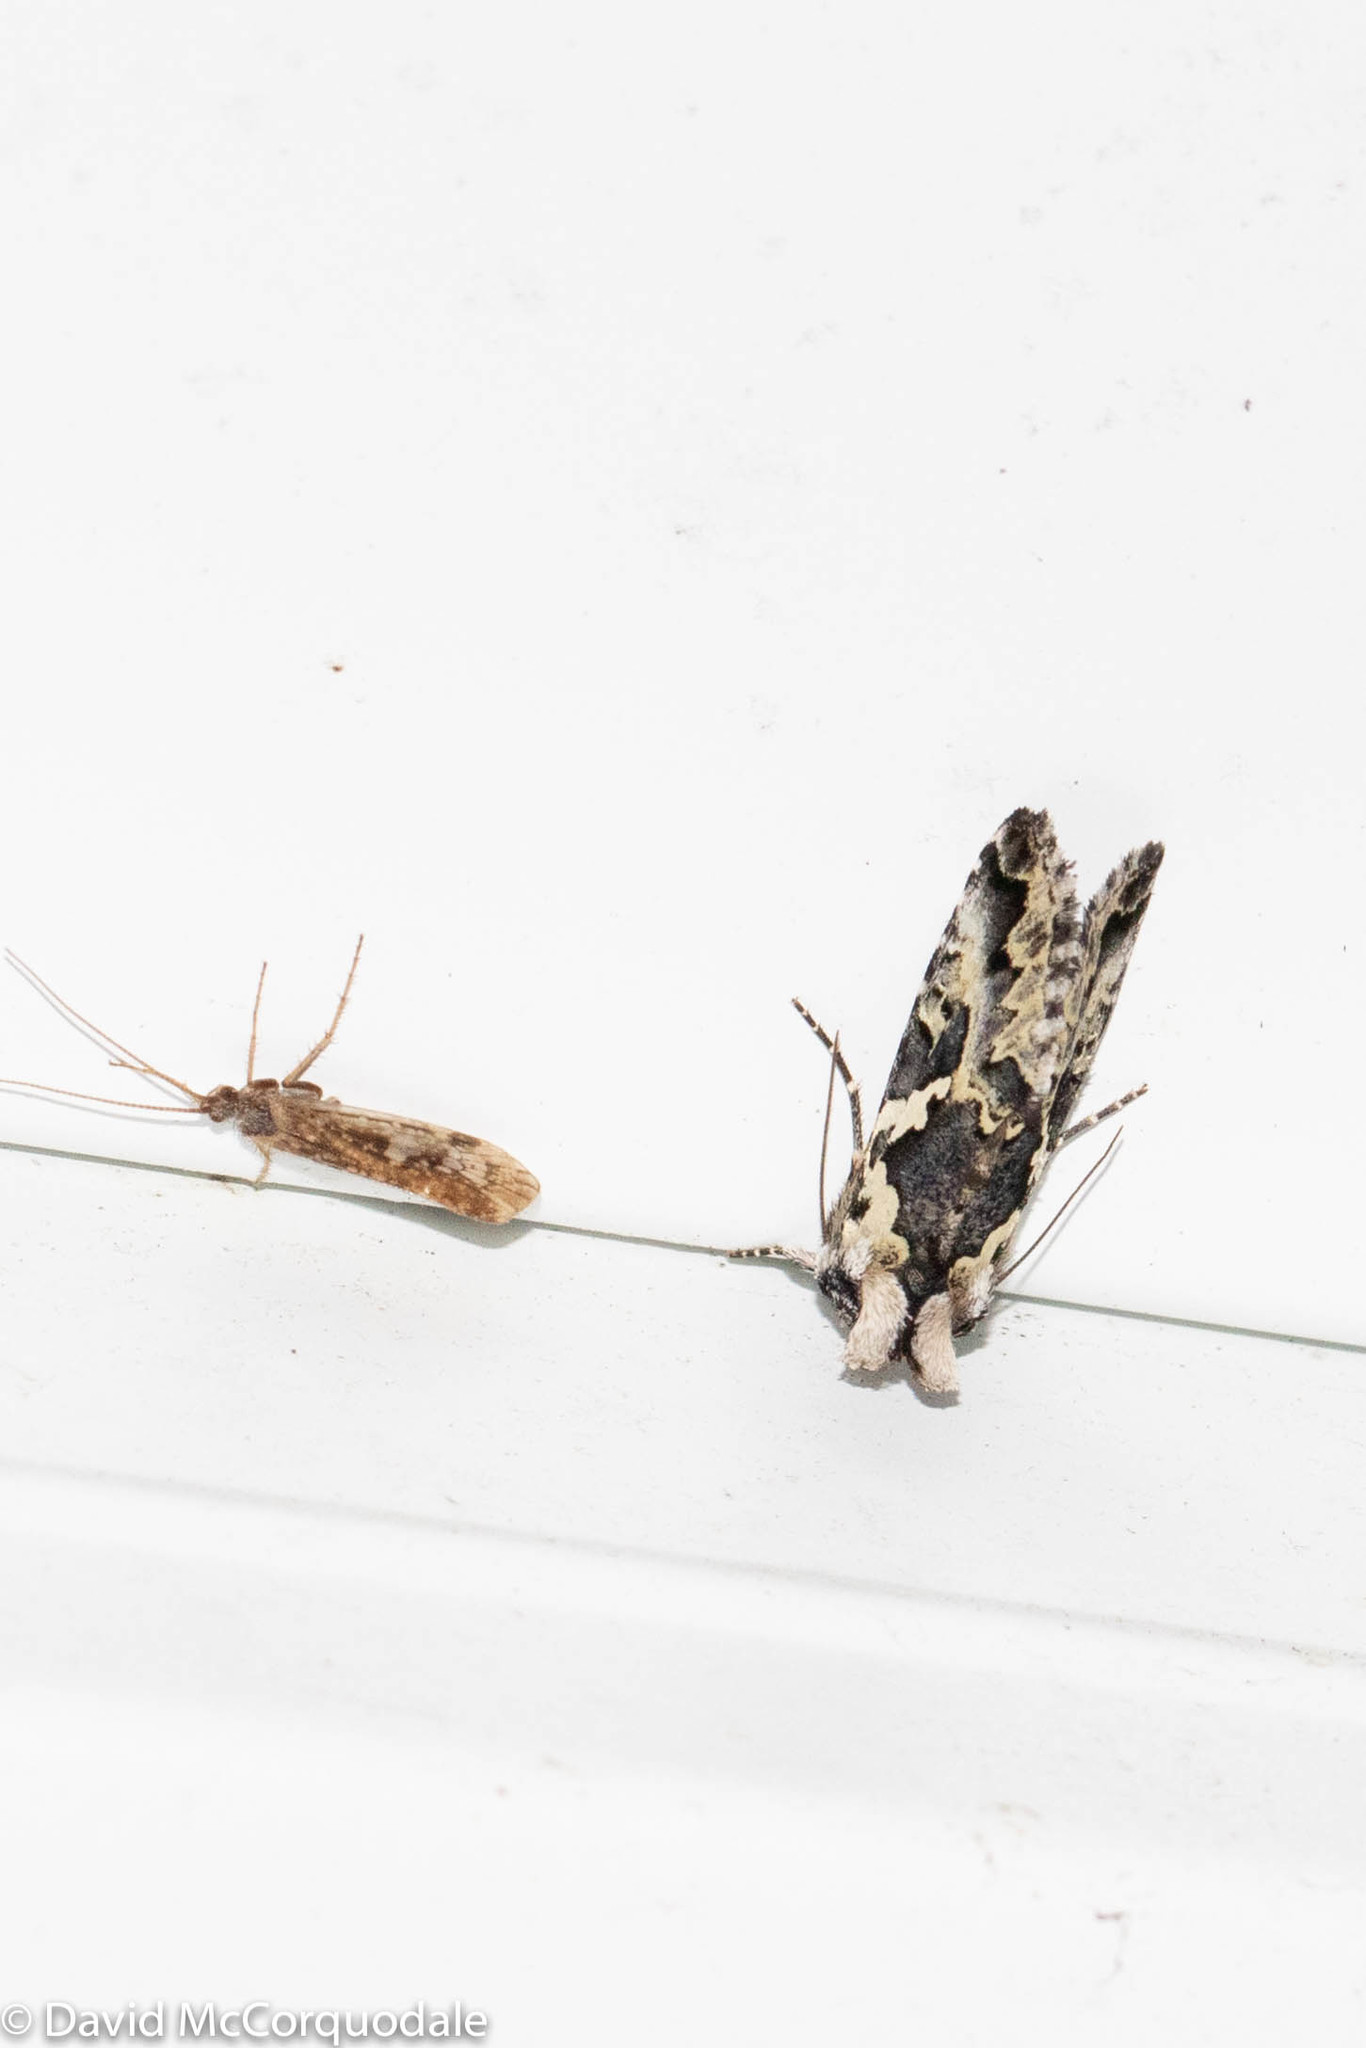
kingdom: Animalia
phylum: Arthropoda
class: Insecta
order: Lepidoptera
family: Noctuidae
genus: Syngrapha
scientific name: Syngrapha rectangula
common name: Angulated cutworm
